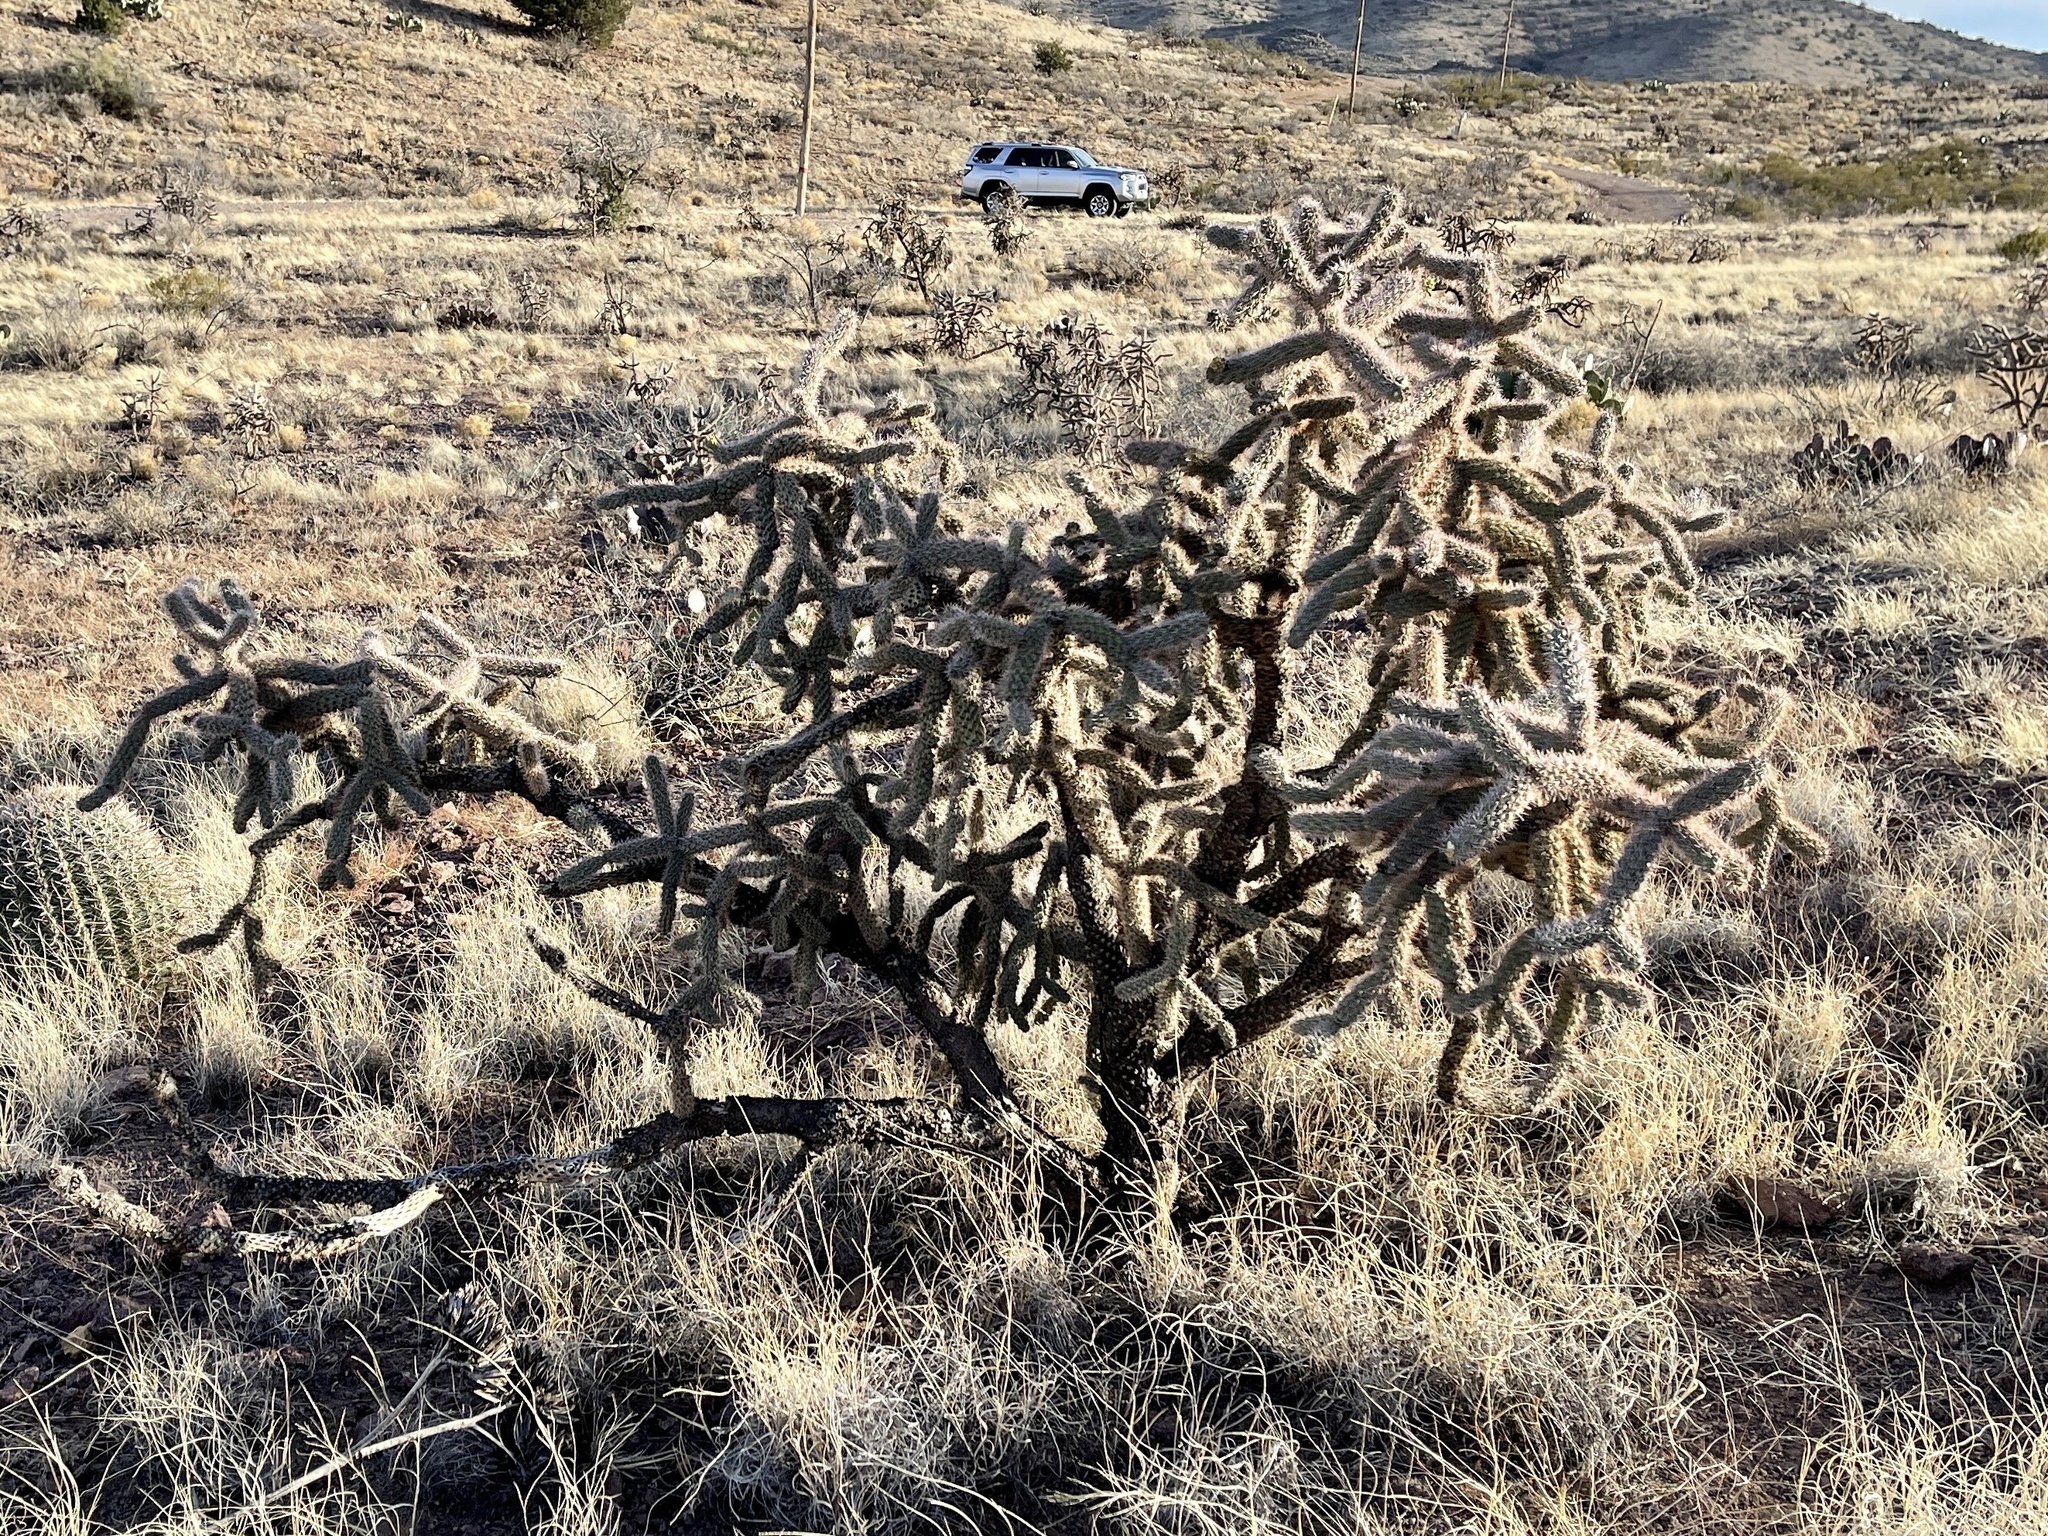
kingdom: Plantae
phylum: Tracheophyta
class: Magnoliopsida
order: Caryophyllales
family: Cactaceae
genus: Cylindropuntia
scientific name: Cylindropuntia imbricata
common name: Candelabrum cactus
